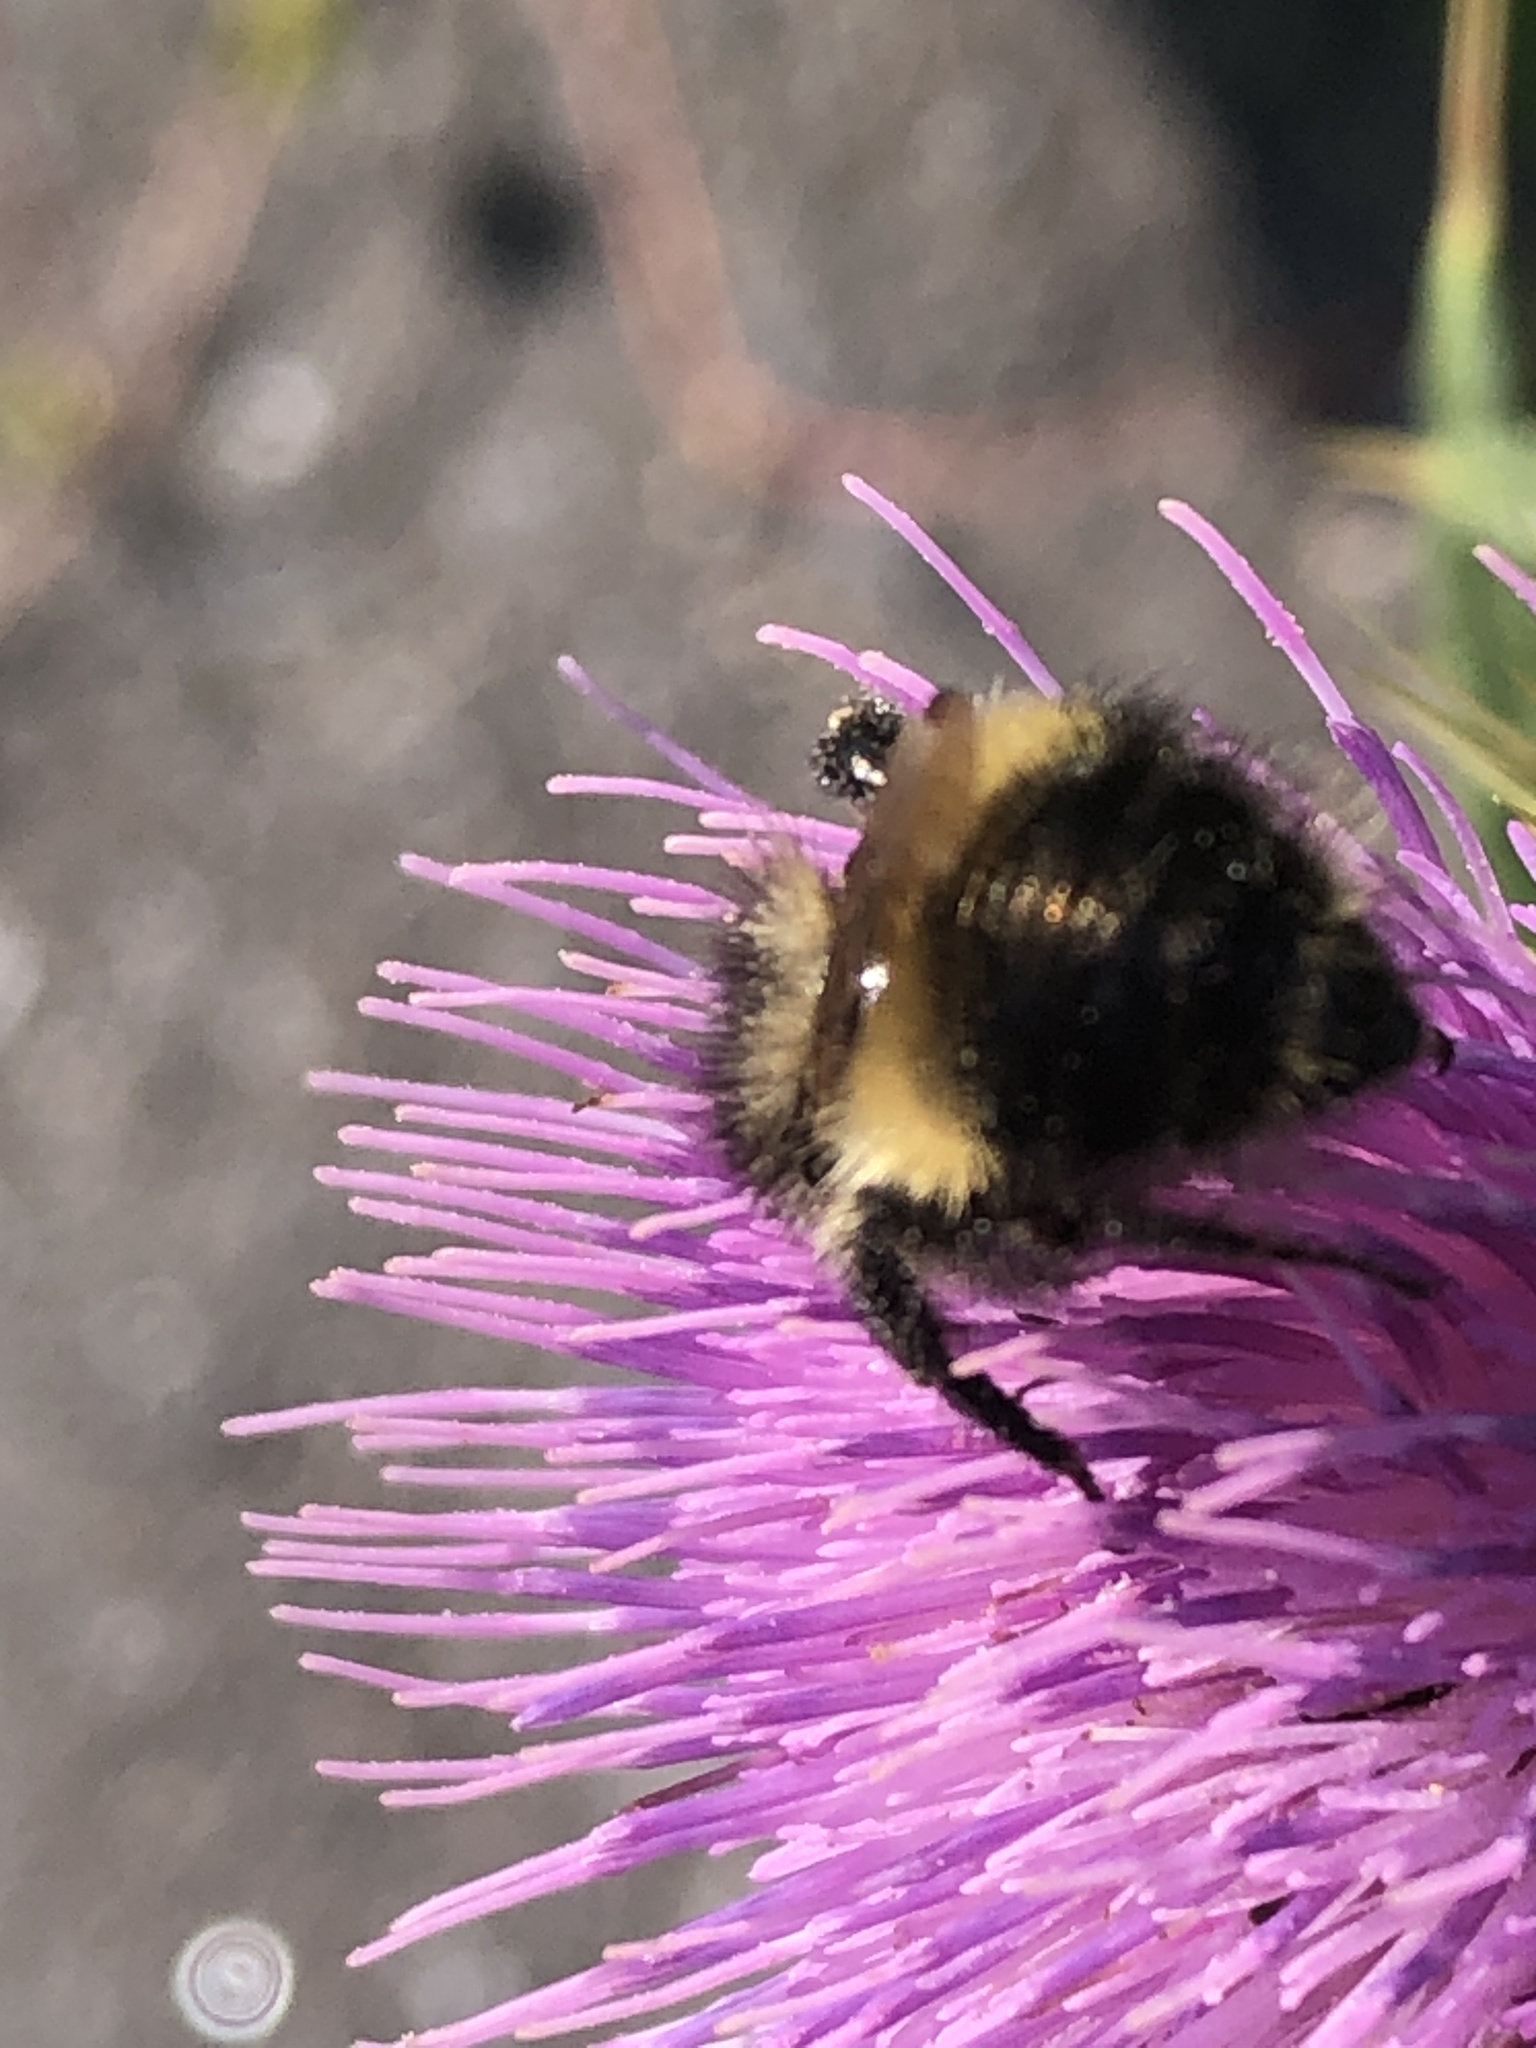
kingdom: Animalia
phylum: Arthropoda
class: Insecta
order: Hymenoptera
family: Apidae
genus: Bombus
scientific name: Bombus vagans
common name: Half-black bumble bee
